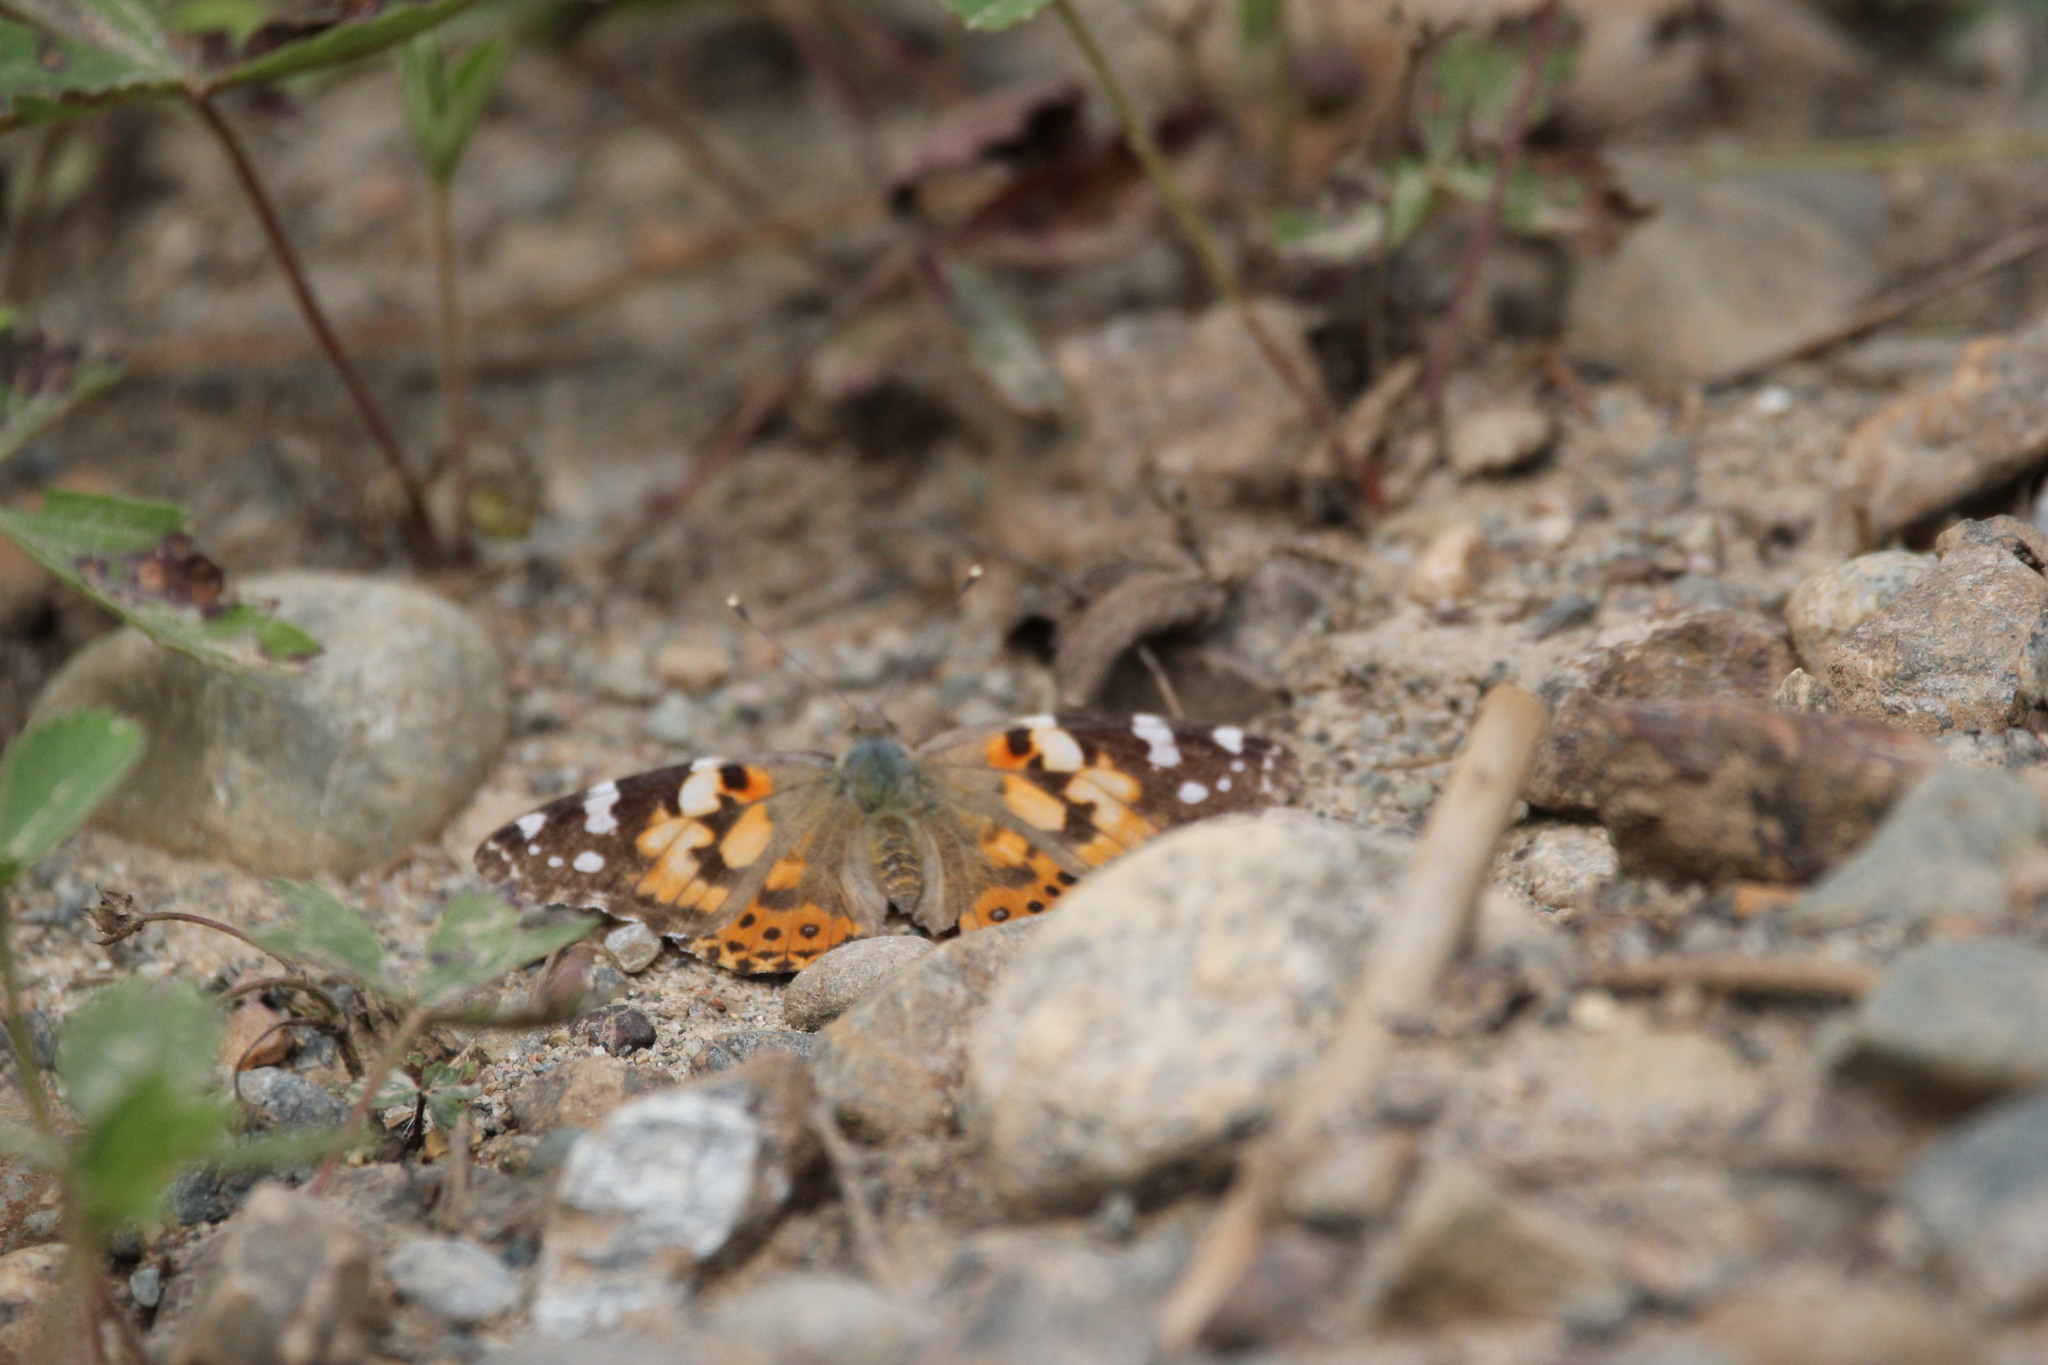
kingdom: Animalia
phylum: Arthropoda
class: Insecta
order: Lepidoptera
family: Nymphalidae
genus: Vanessa
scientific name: Vanessa cardui
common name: Painted lady
